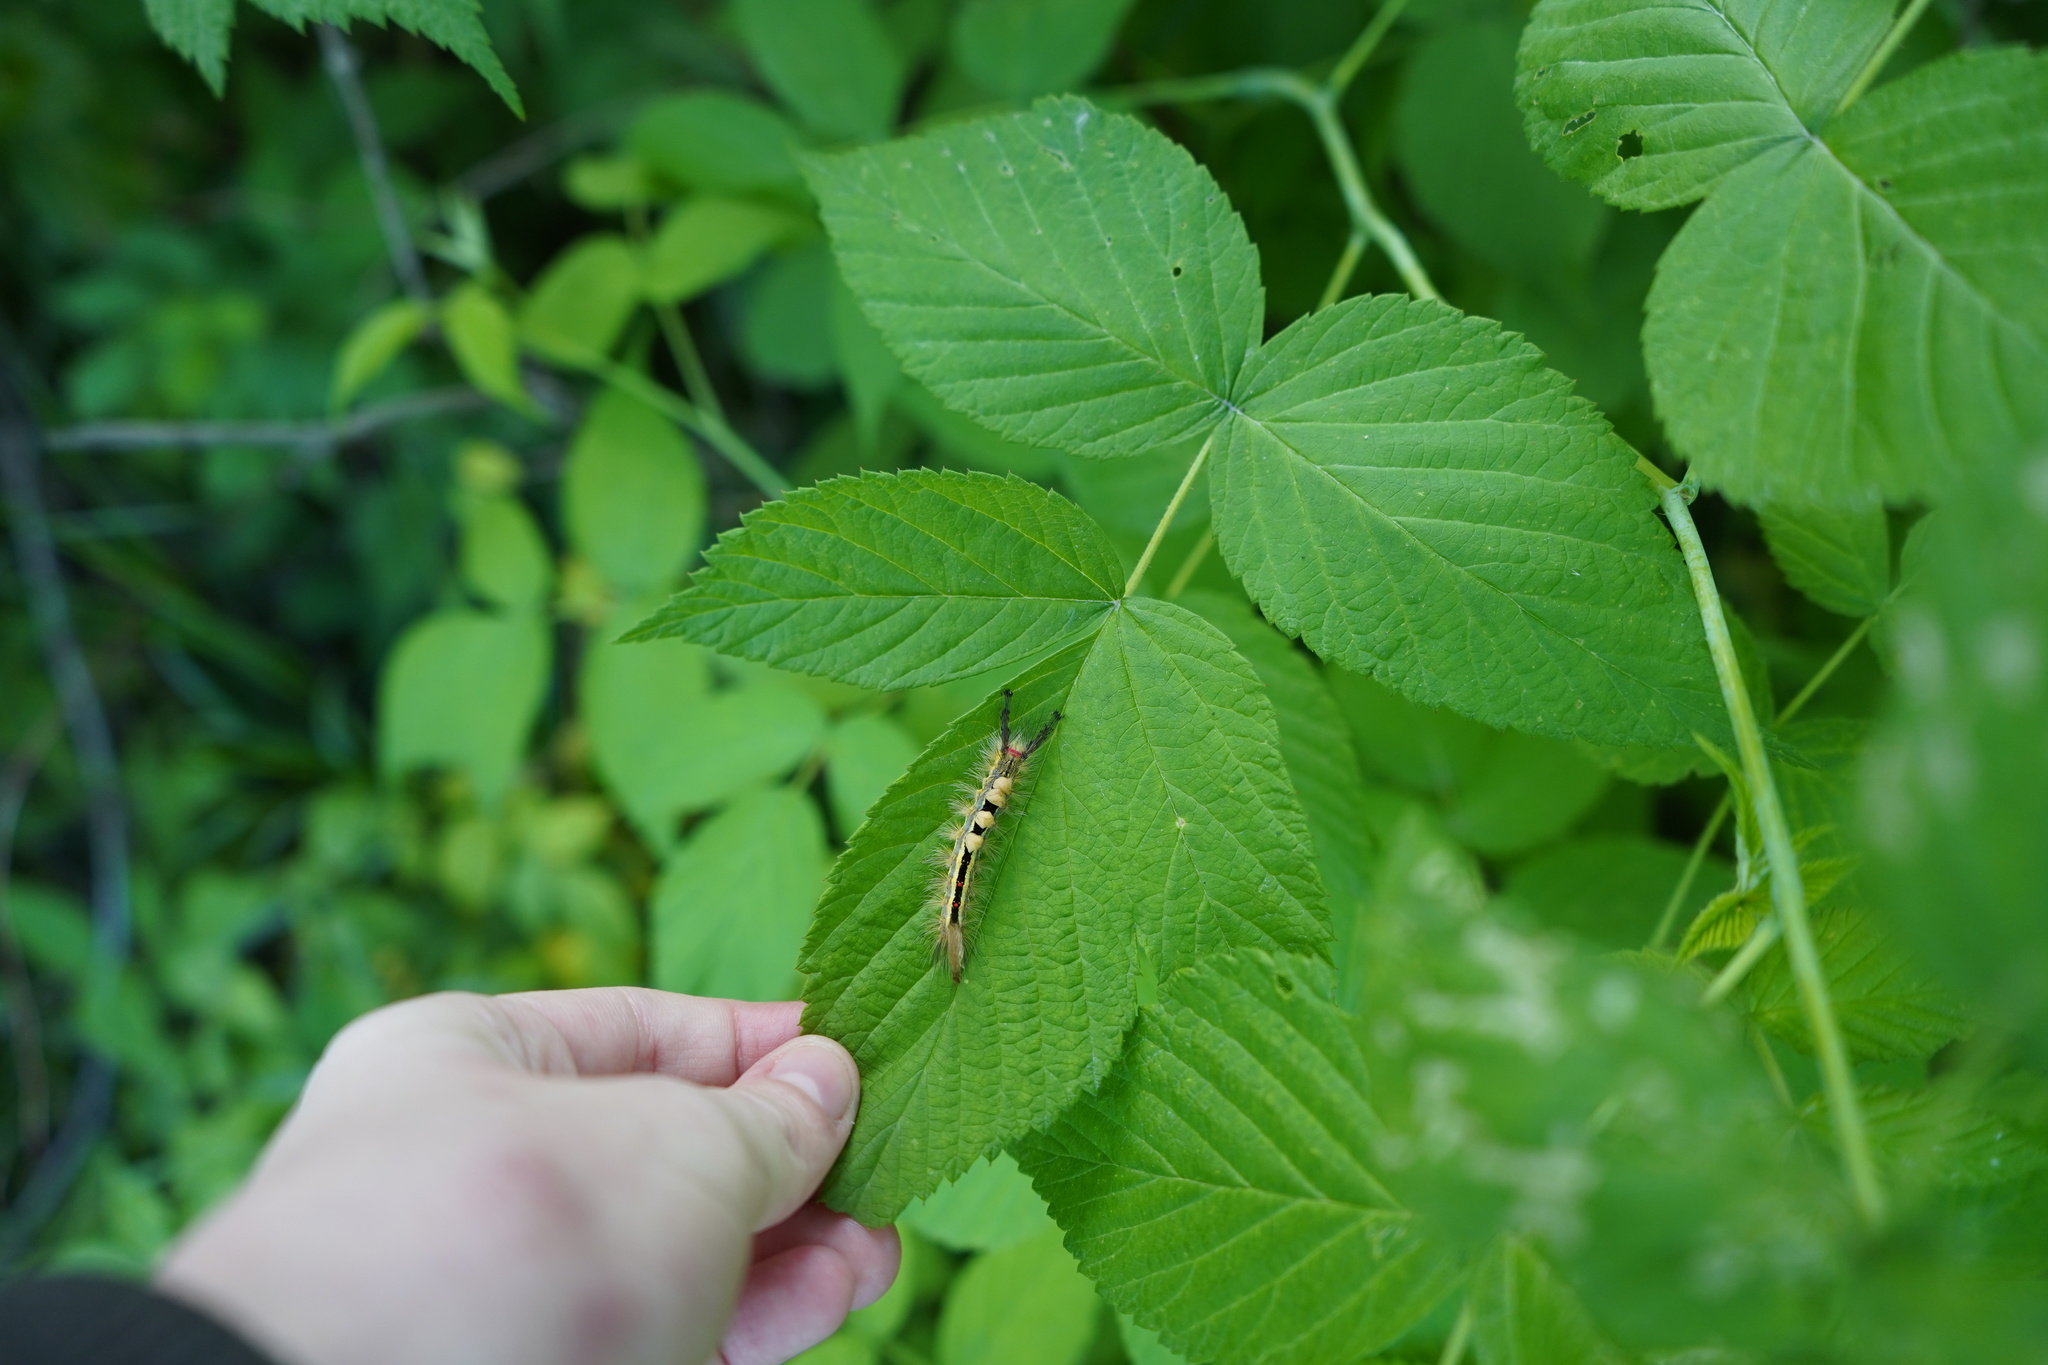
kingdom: Animalia
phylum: Arthropoda
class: Insecta
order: Lepidoptera
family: Erebidae
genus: Orgyia
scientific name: Orgyia leucostigma
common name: White-marked tussock moth
